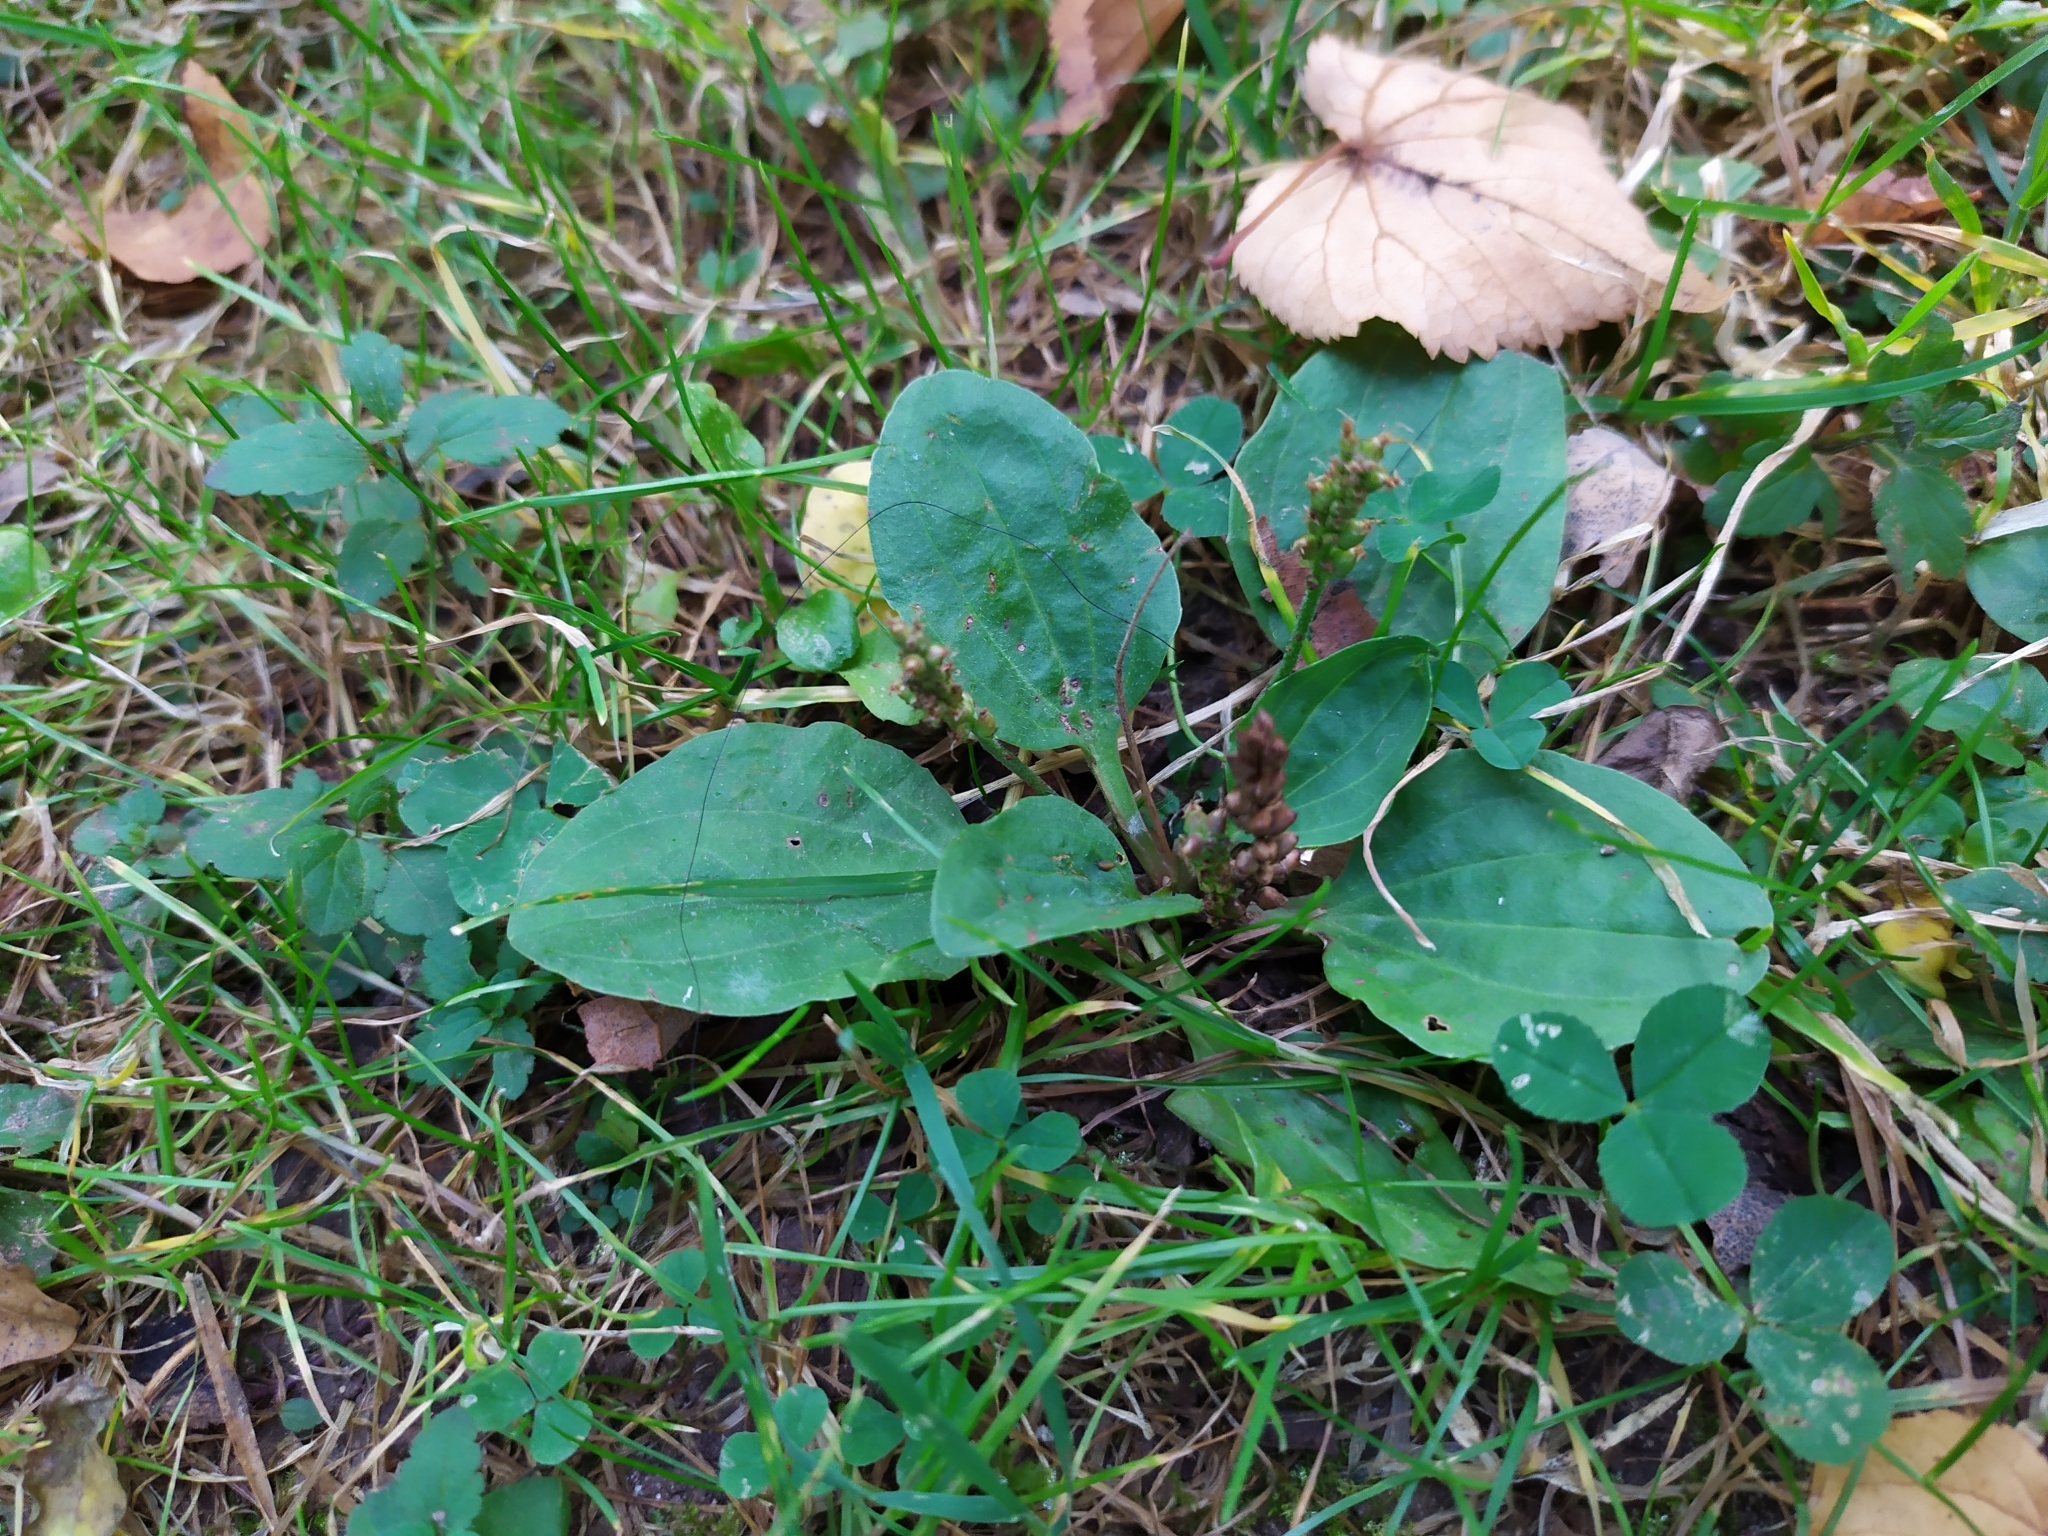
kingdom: Plantae
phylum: Tracheophyta
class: Magnoliopsida
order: Lamiales
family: Plantaginaceae
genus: Plantago
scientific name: Plantago major
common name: Common plantain
